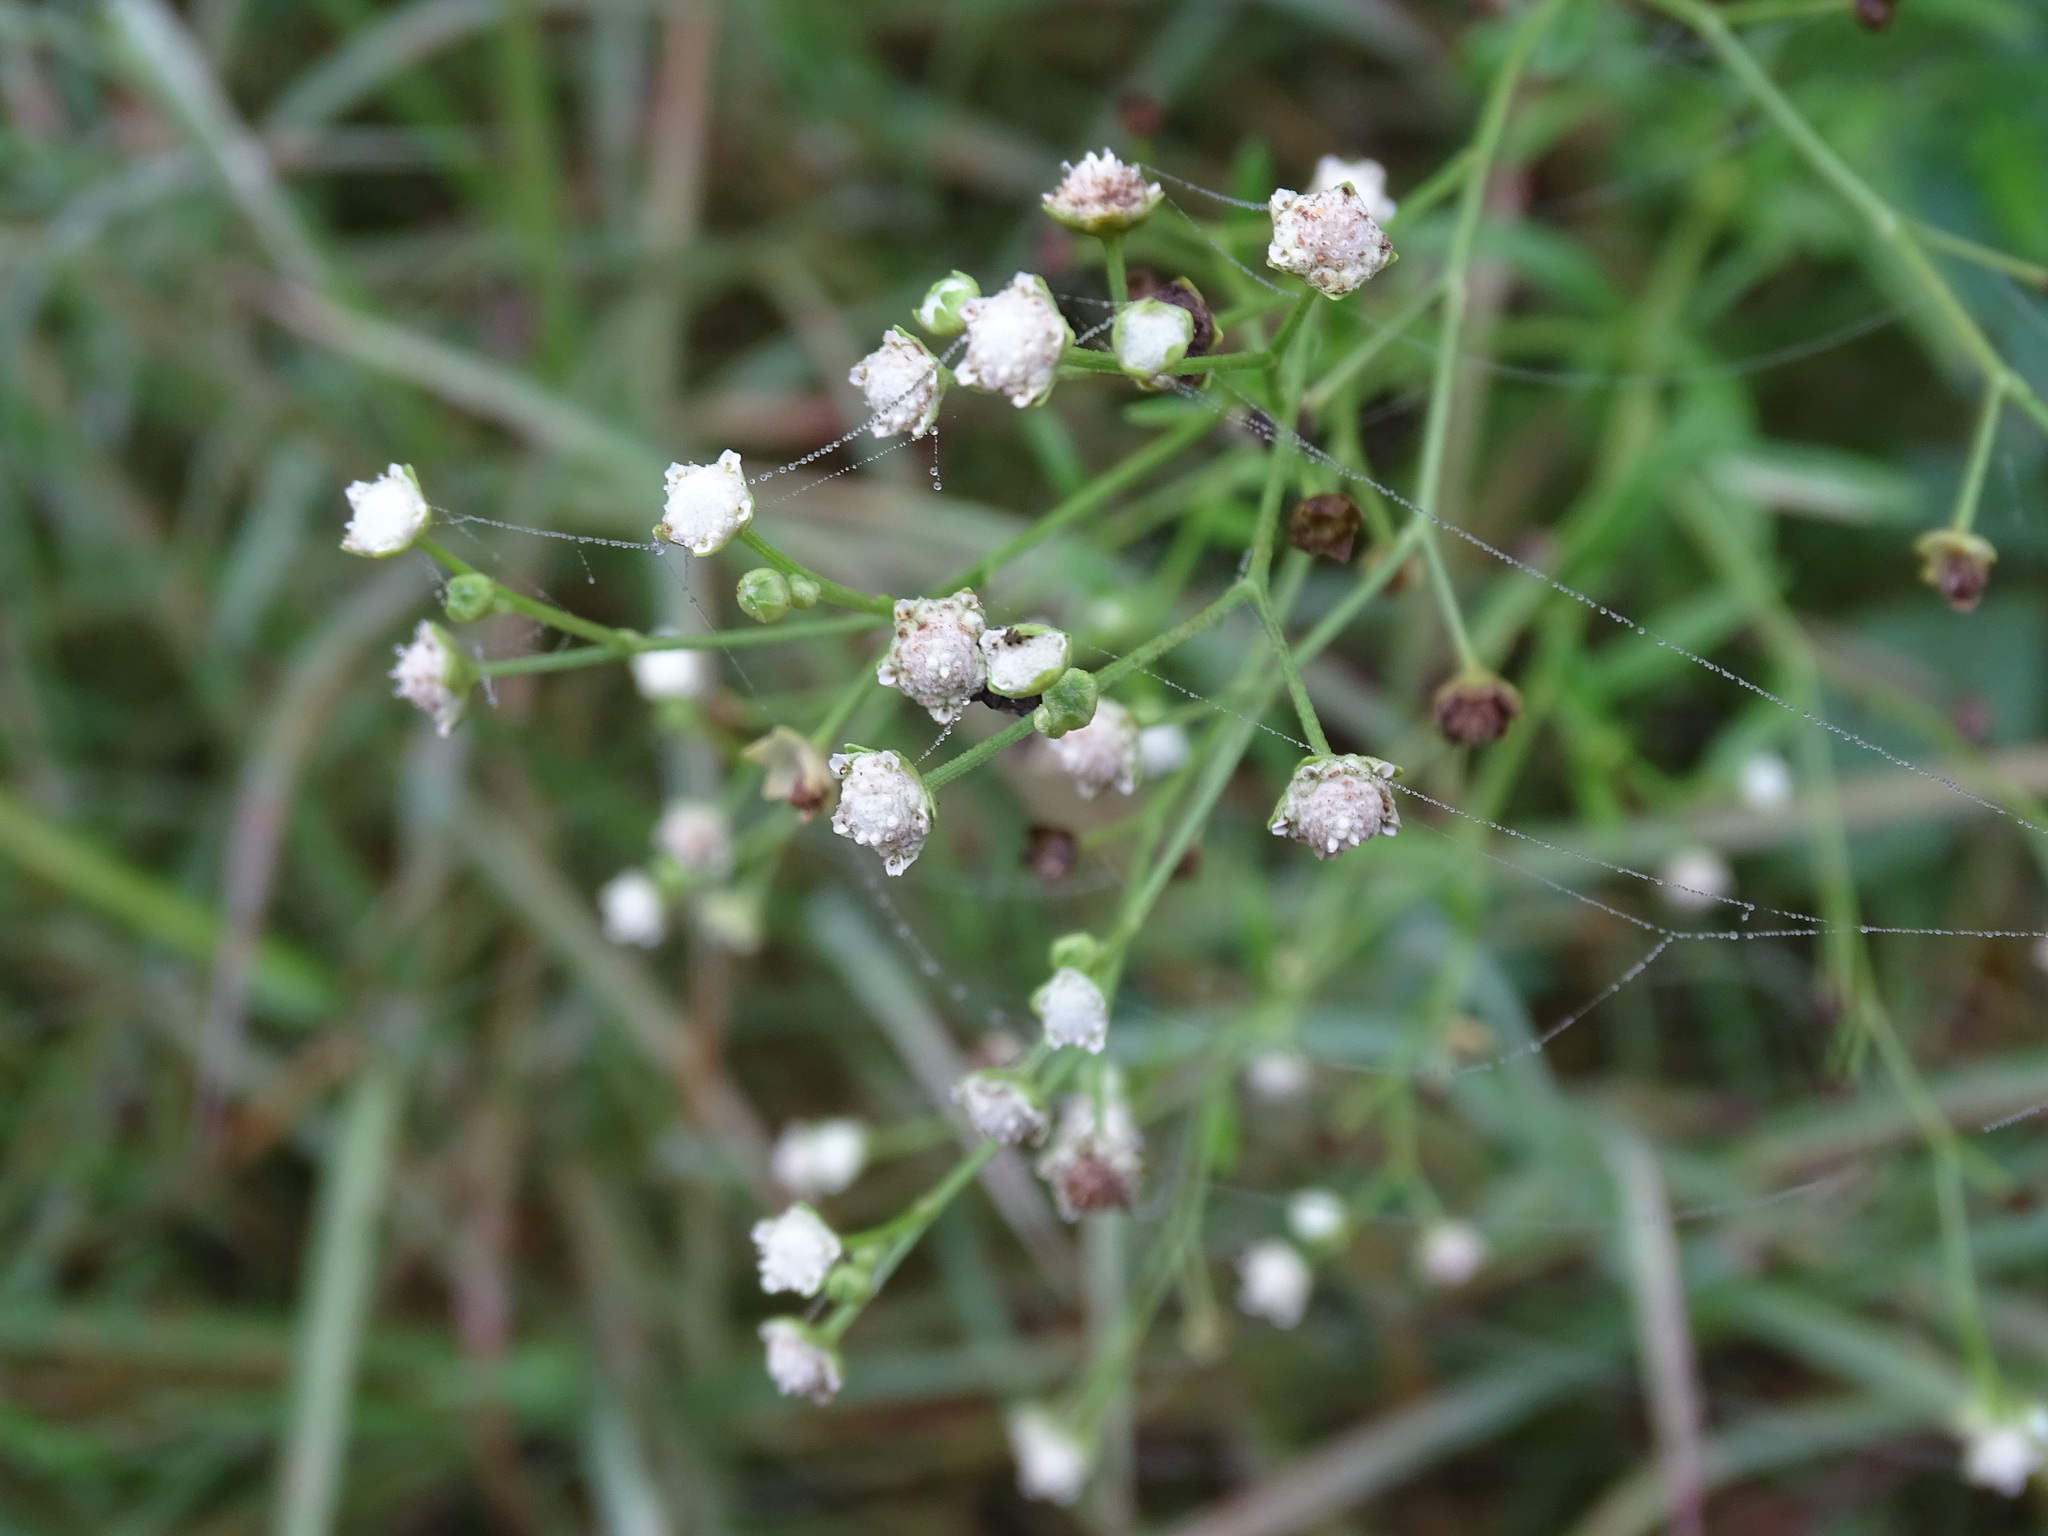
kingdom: Plantae
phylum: Tracheophyta
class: Magnoliopsida
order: Asterales
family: Asteraceae
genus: Parthenium
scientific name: Parthenium hysterophorus
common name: Santa maria feverfew
